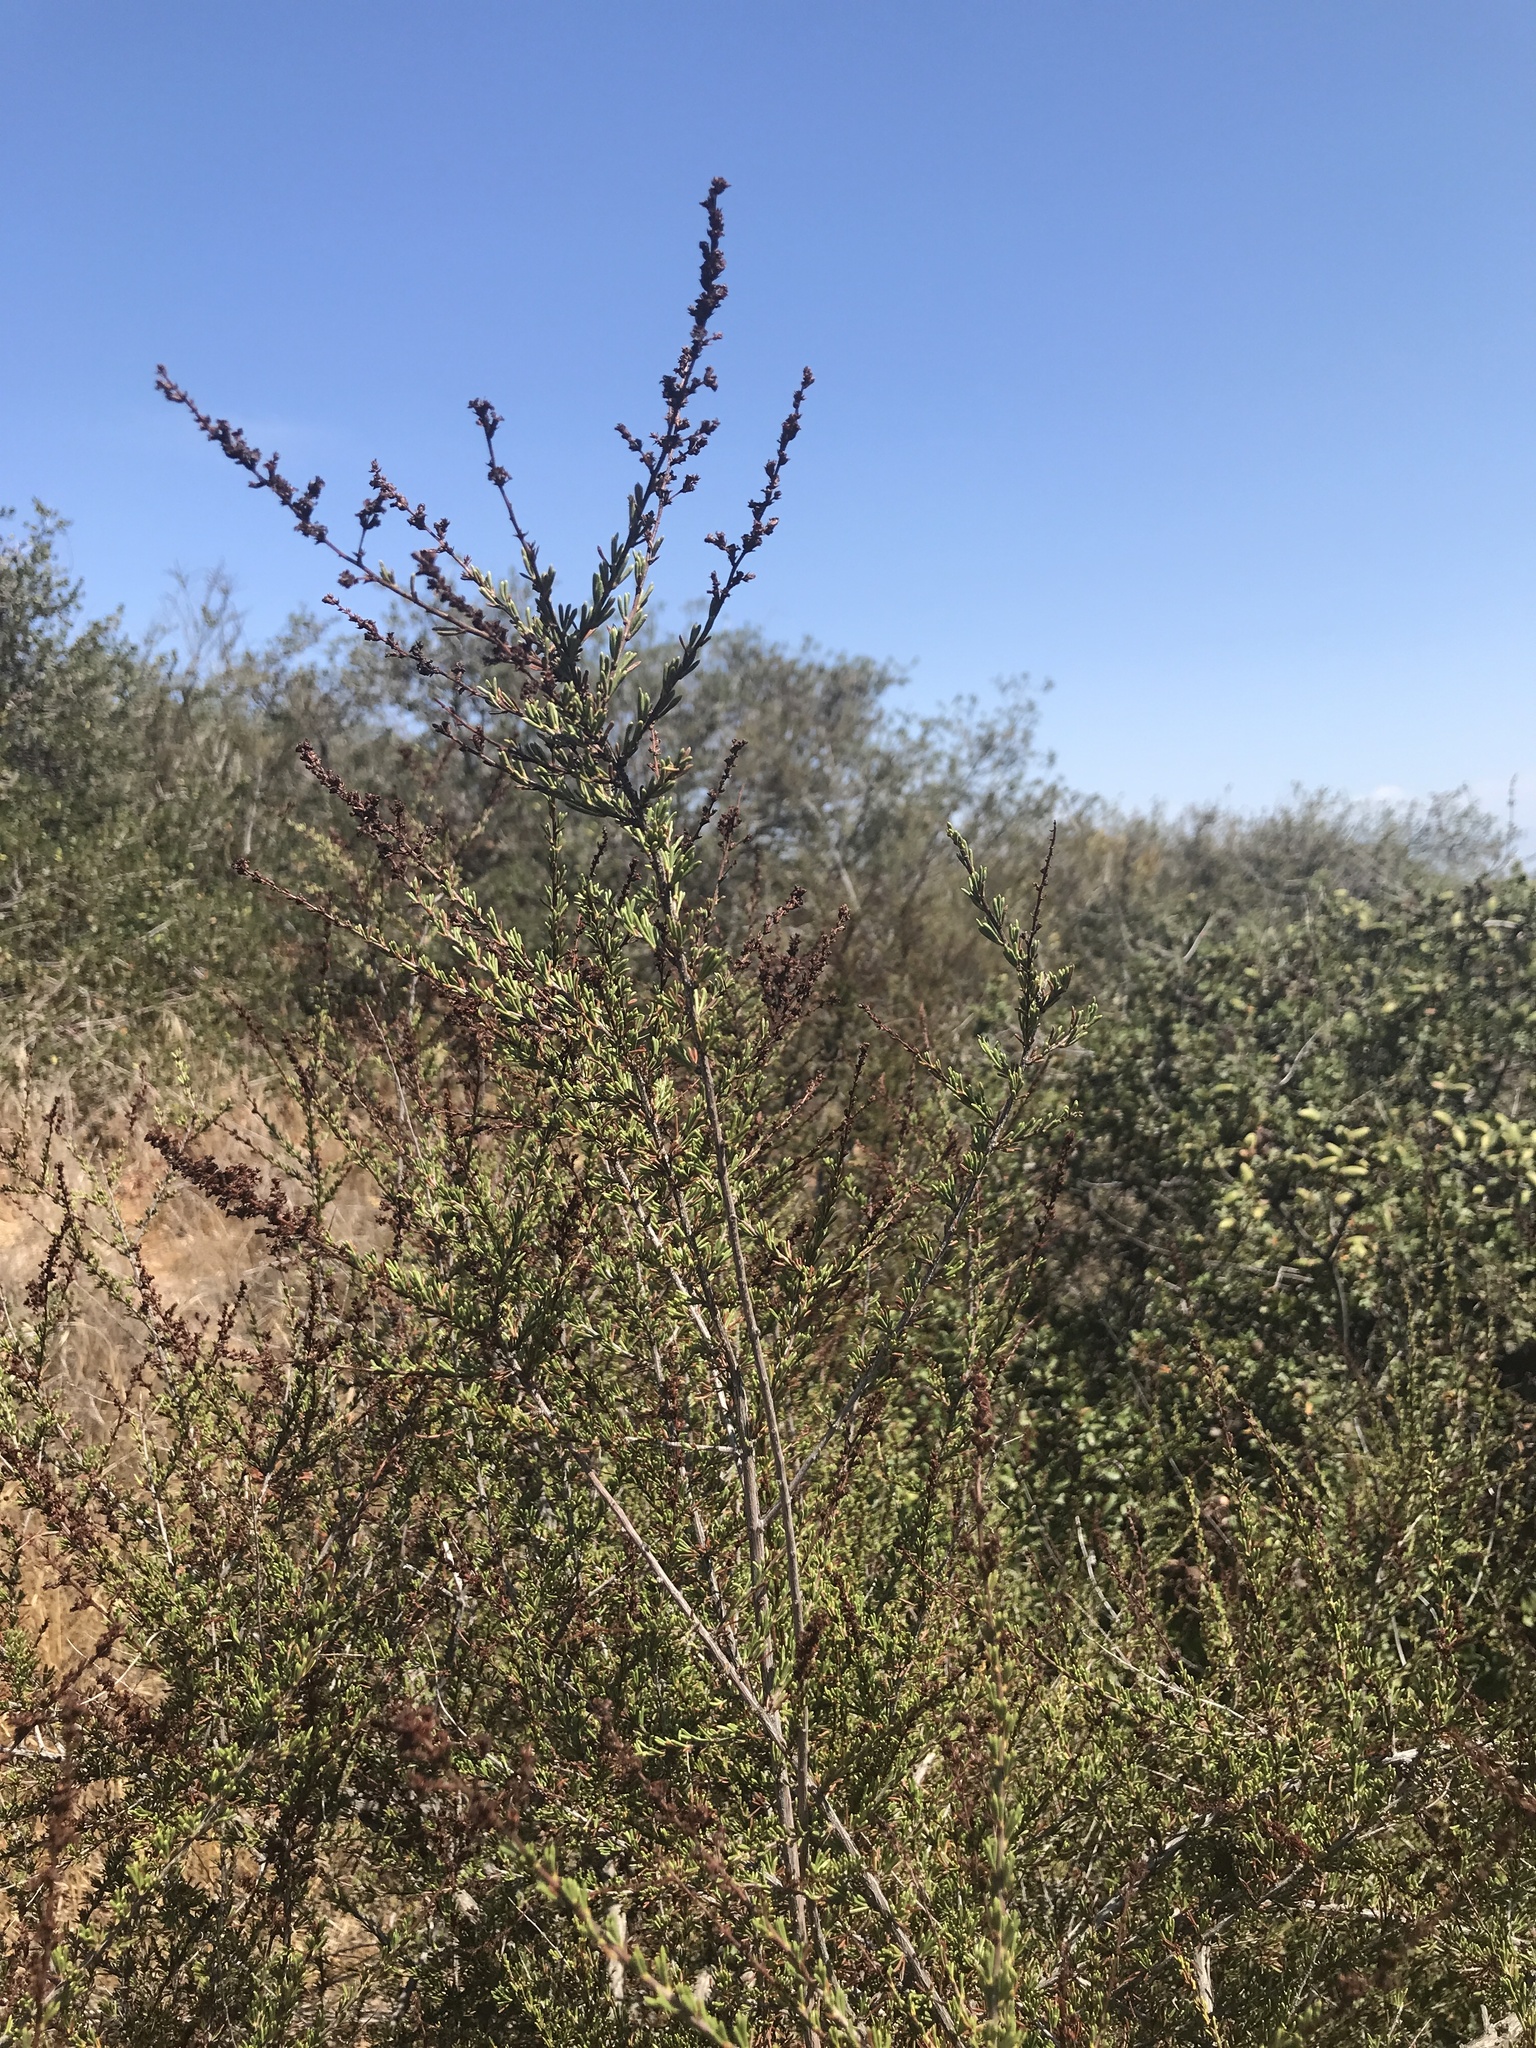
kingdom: Plantae
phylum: Tracheophyta
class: Magnoliopsida
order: Rosales
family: Rosaceae
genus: Adenostoma
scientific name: Adenostoma fasciculatum
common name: Chamise
